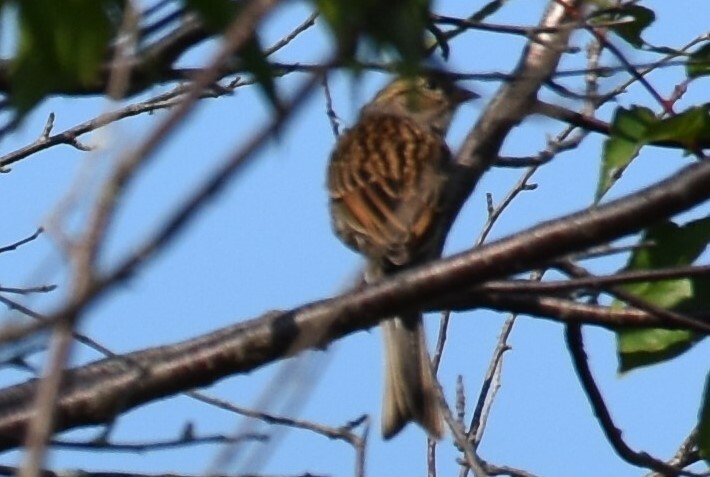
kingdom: Animalia
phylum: Chordata
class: Aves
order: Passeriformes
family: Passerellidae
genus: Spizella
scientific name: Spizella passerina
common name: Chipping sparrow
